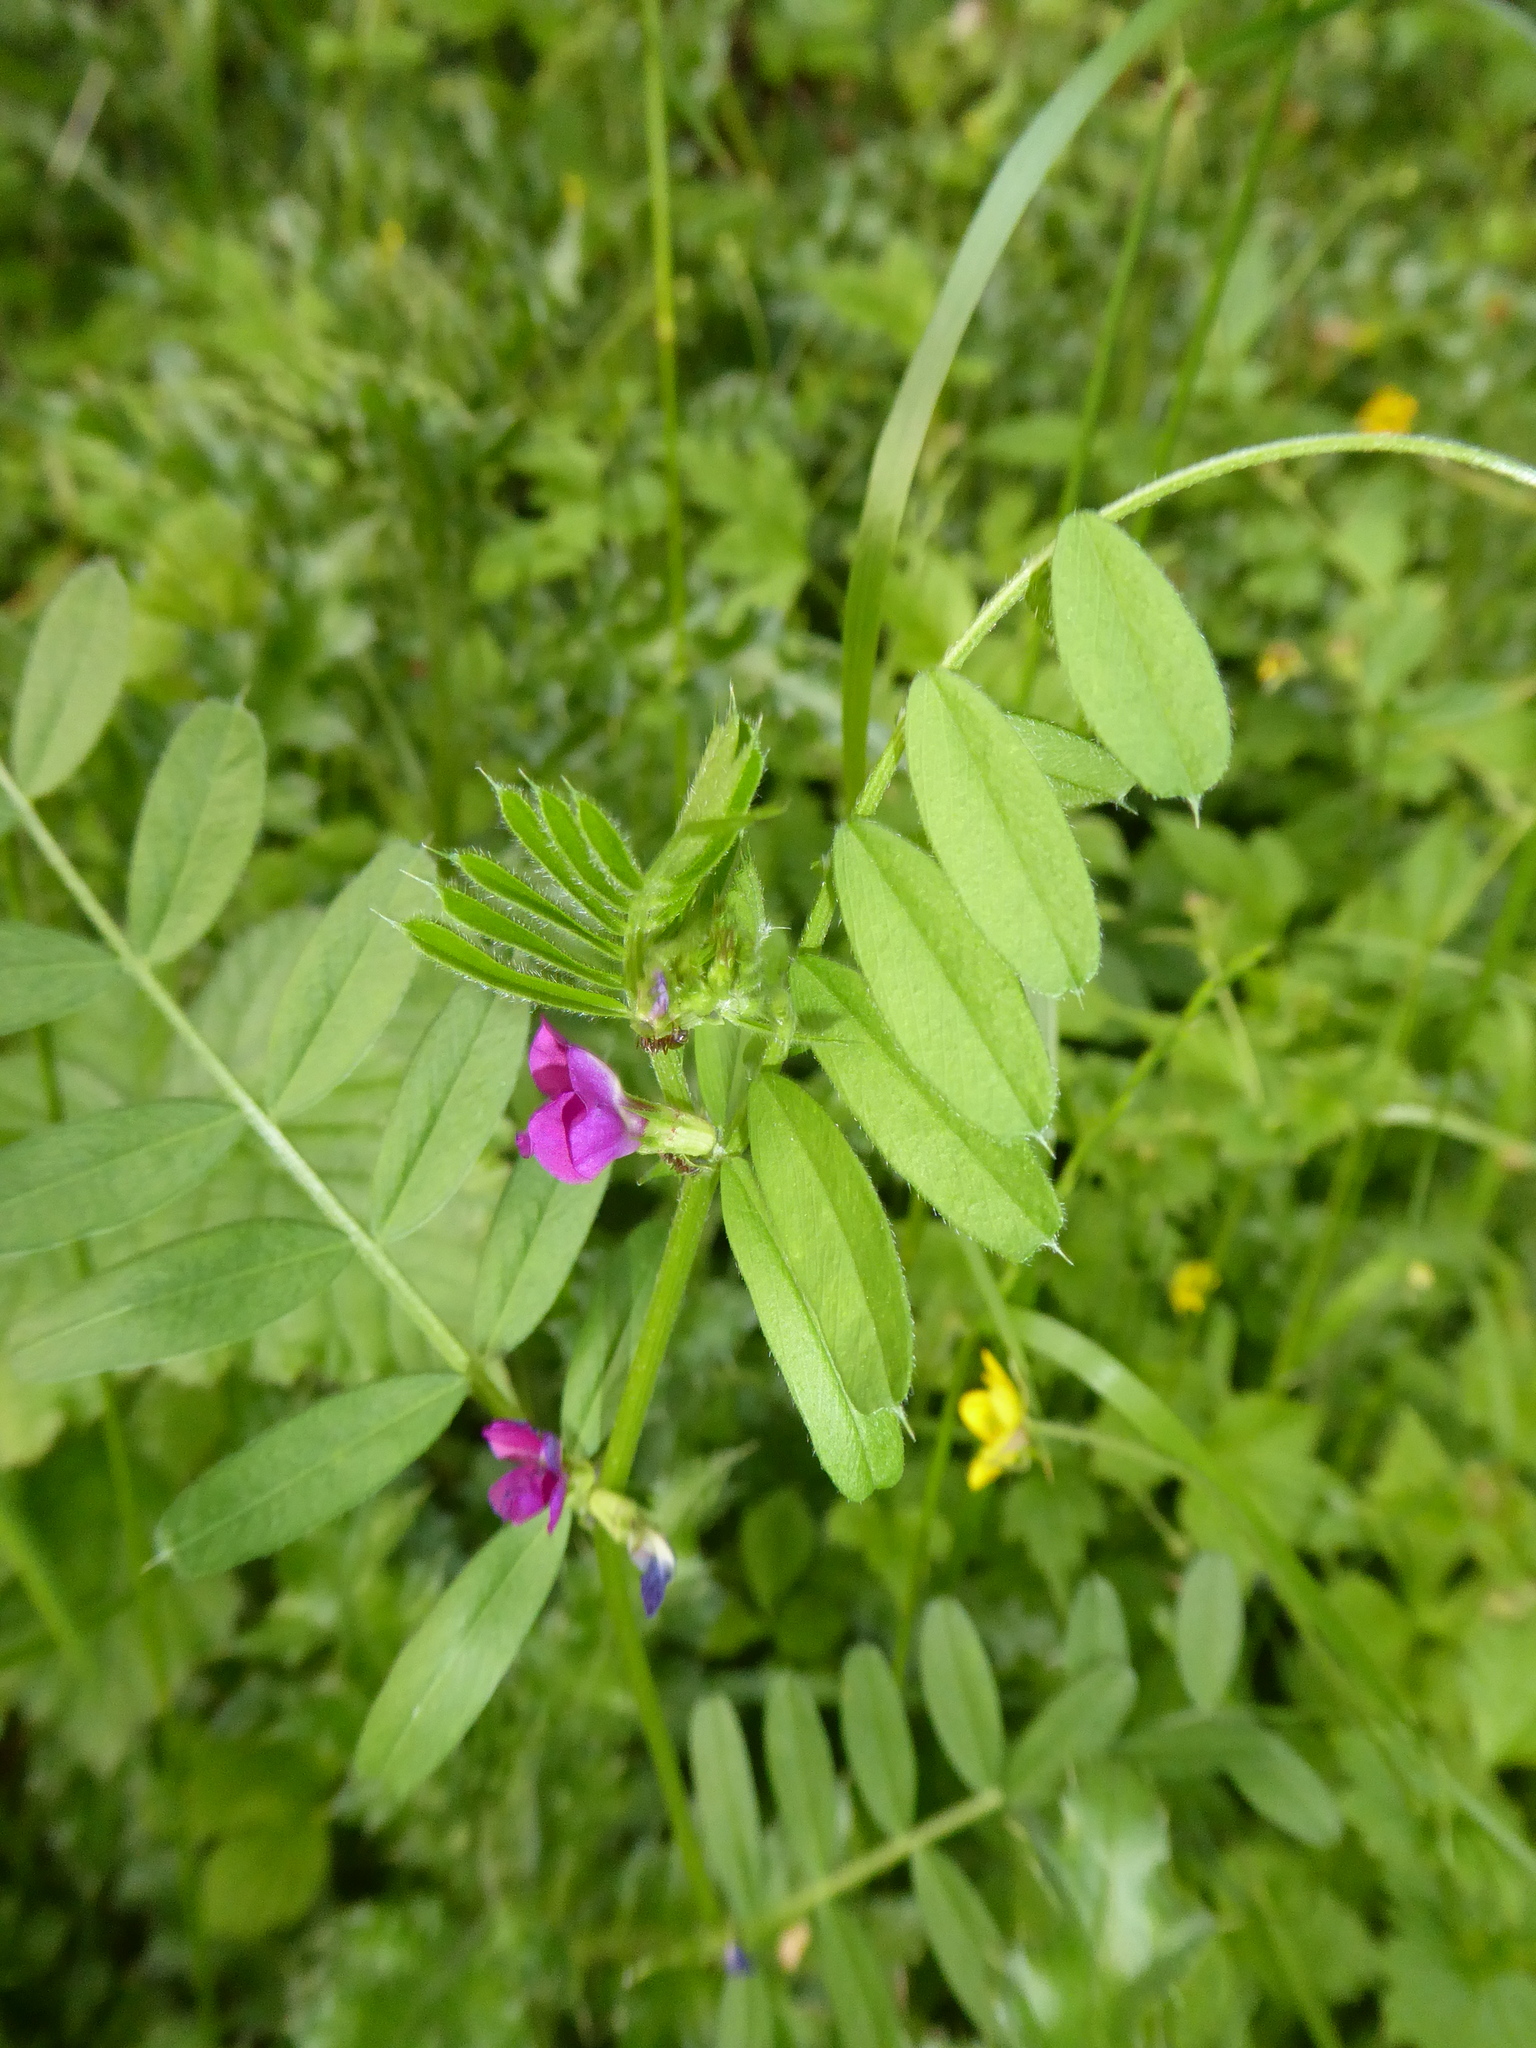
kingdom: Plantae
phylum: Tracheophyta
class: Magnoliopsida
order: Fabales
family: Fabaceae
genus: Vicia
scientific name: Vicia sativa
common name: Garden vetch
